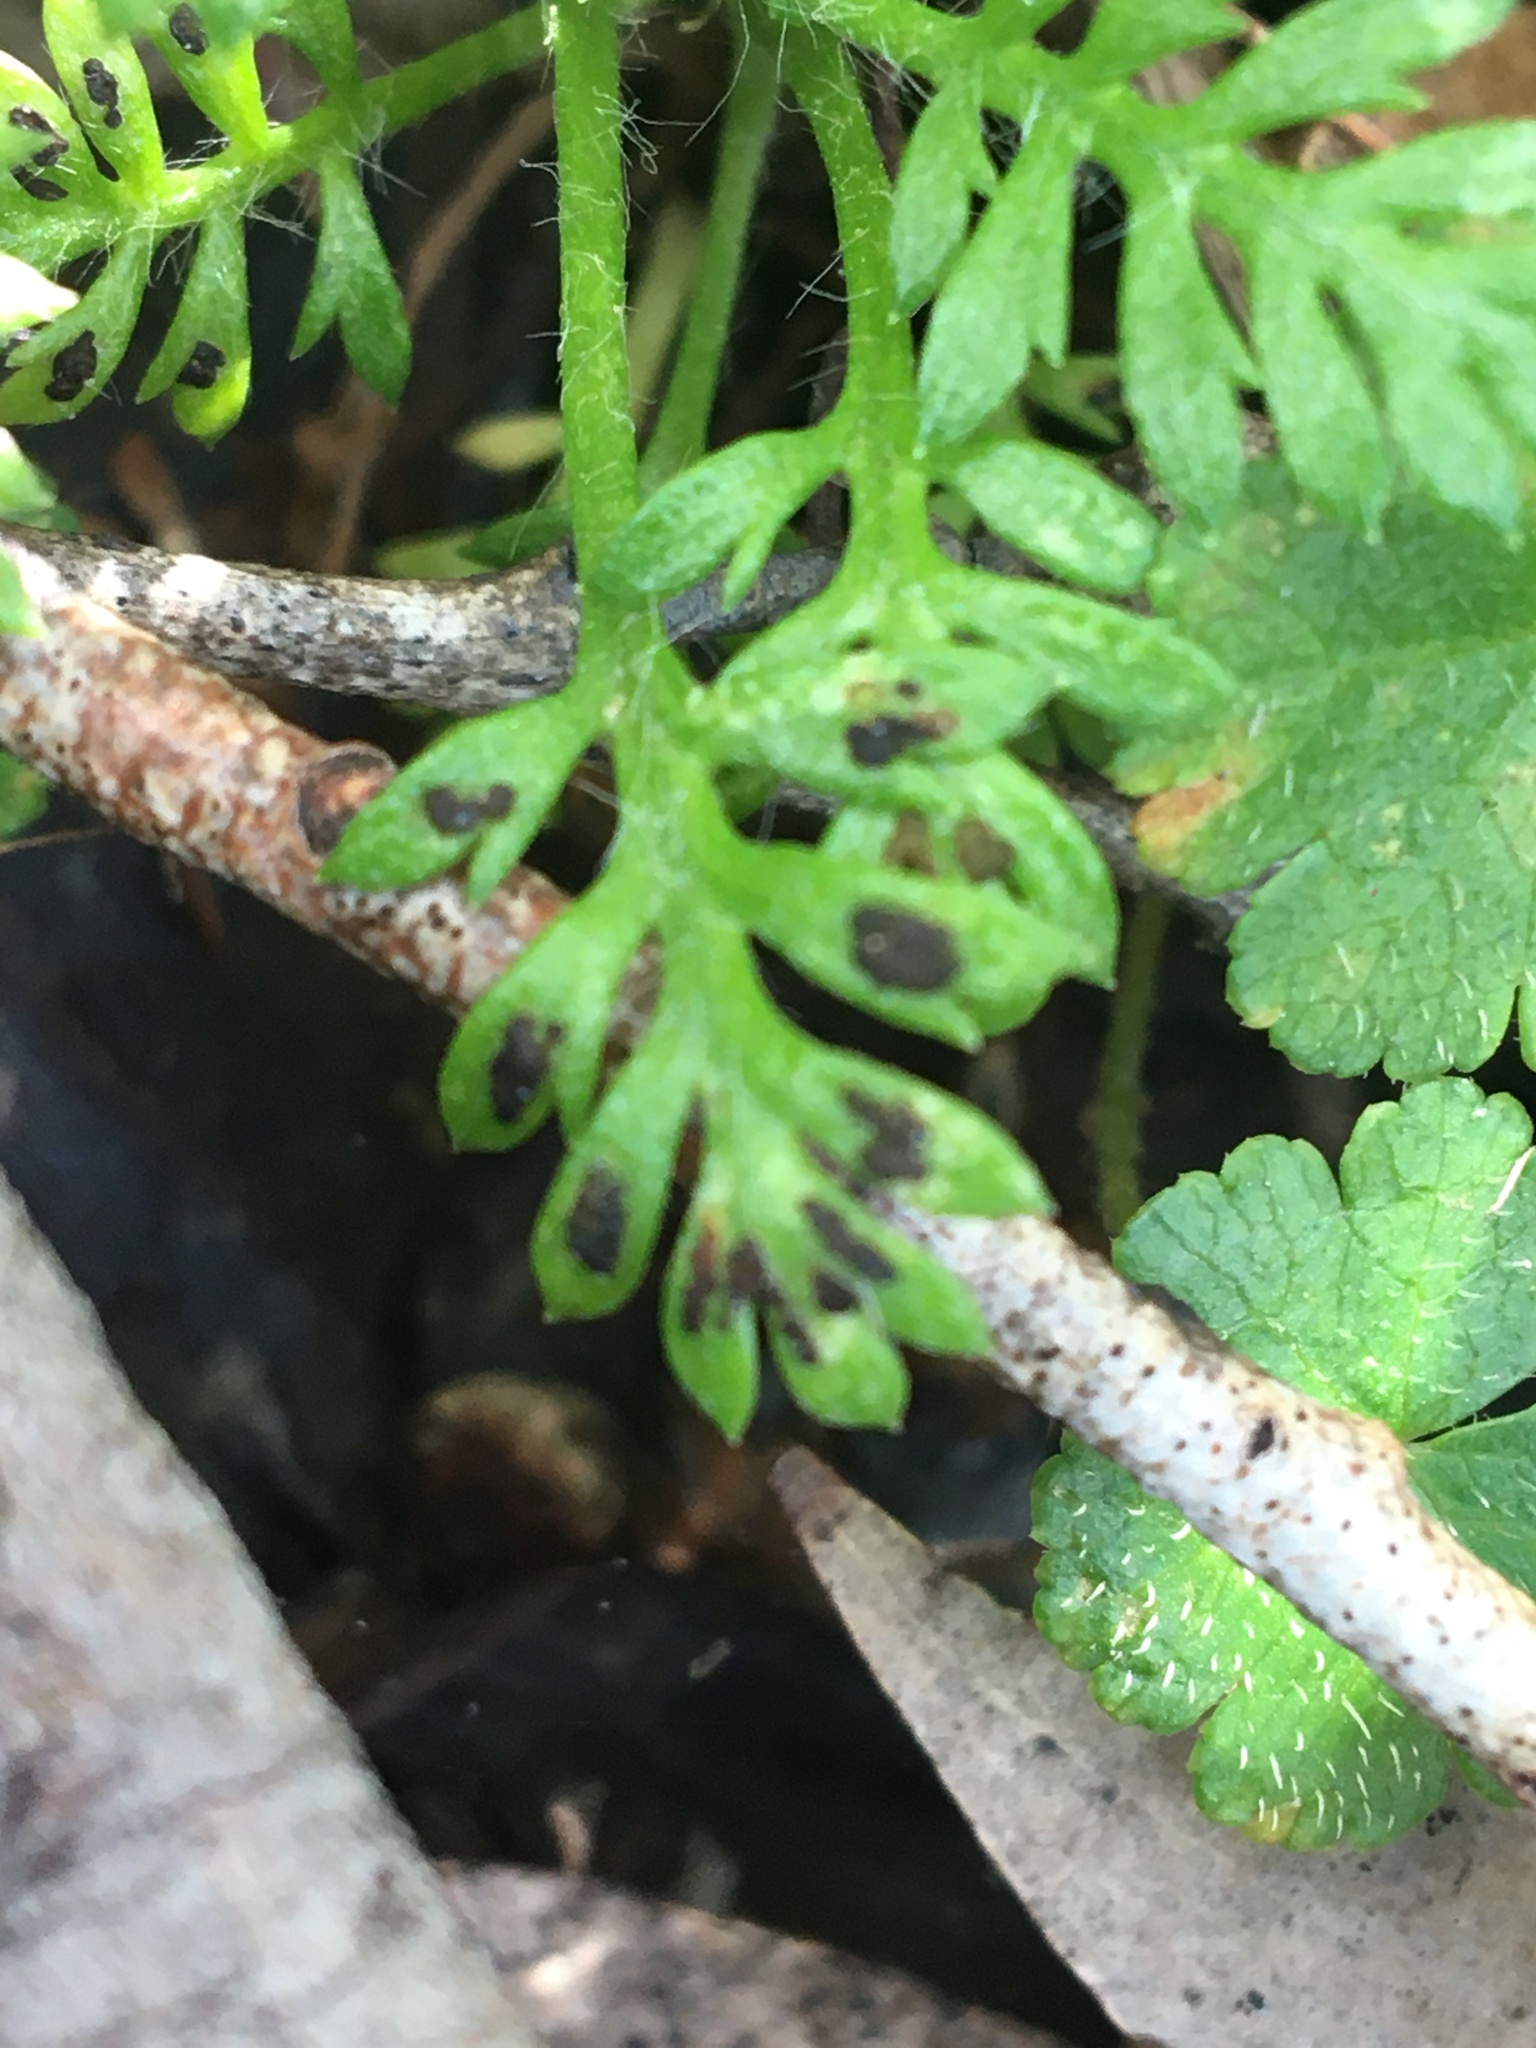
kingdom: Fungi
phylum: Ascomycota
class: Leotiomycetes
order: Helotiales
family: Drepanopezizaceae
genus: Fabraea
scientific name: Fabraea rhytismoidea
